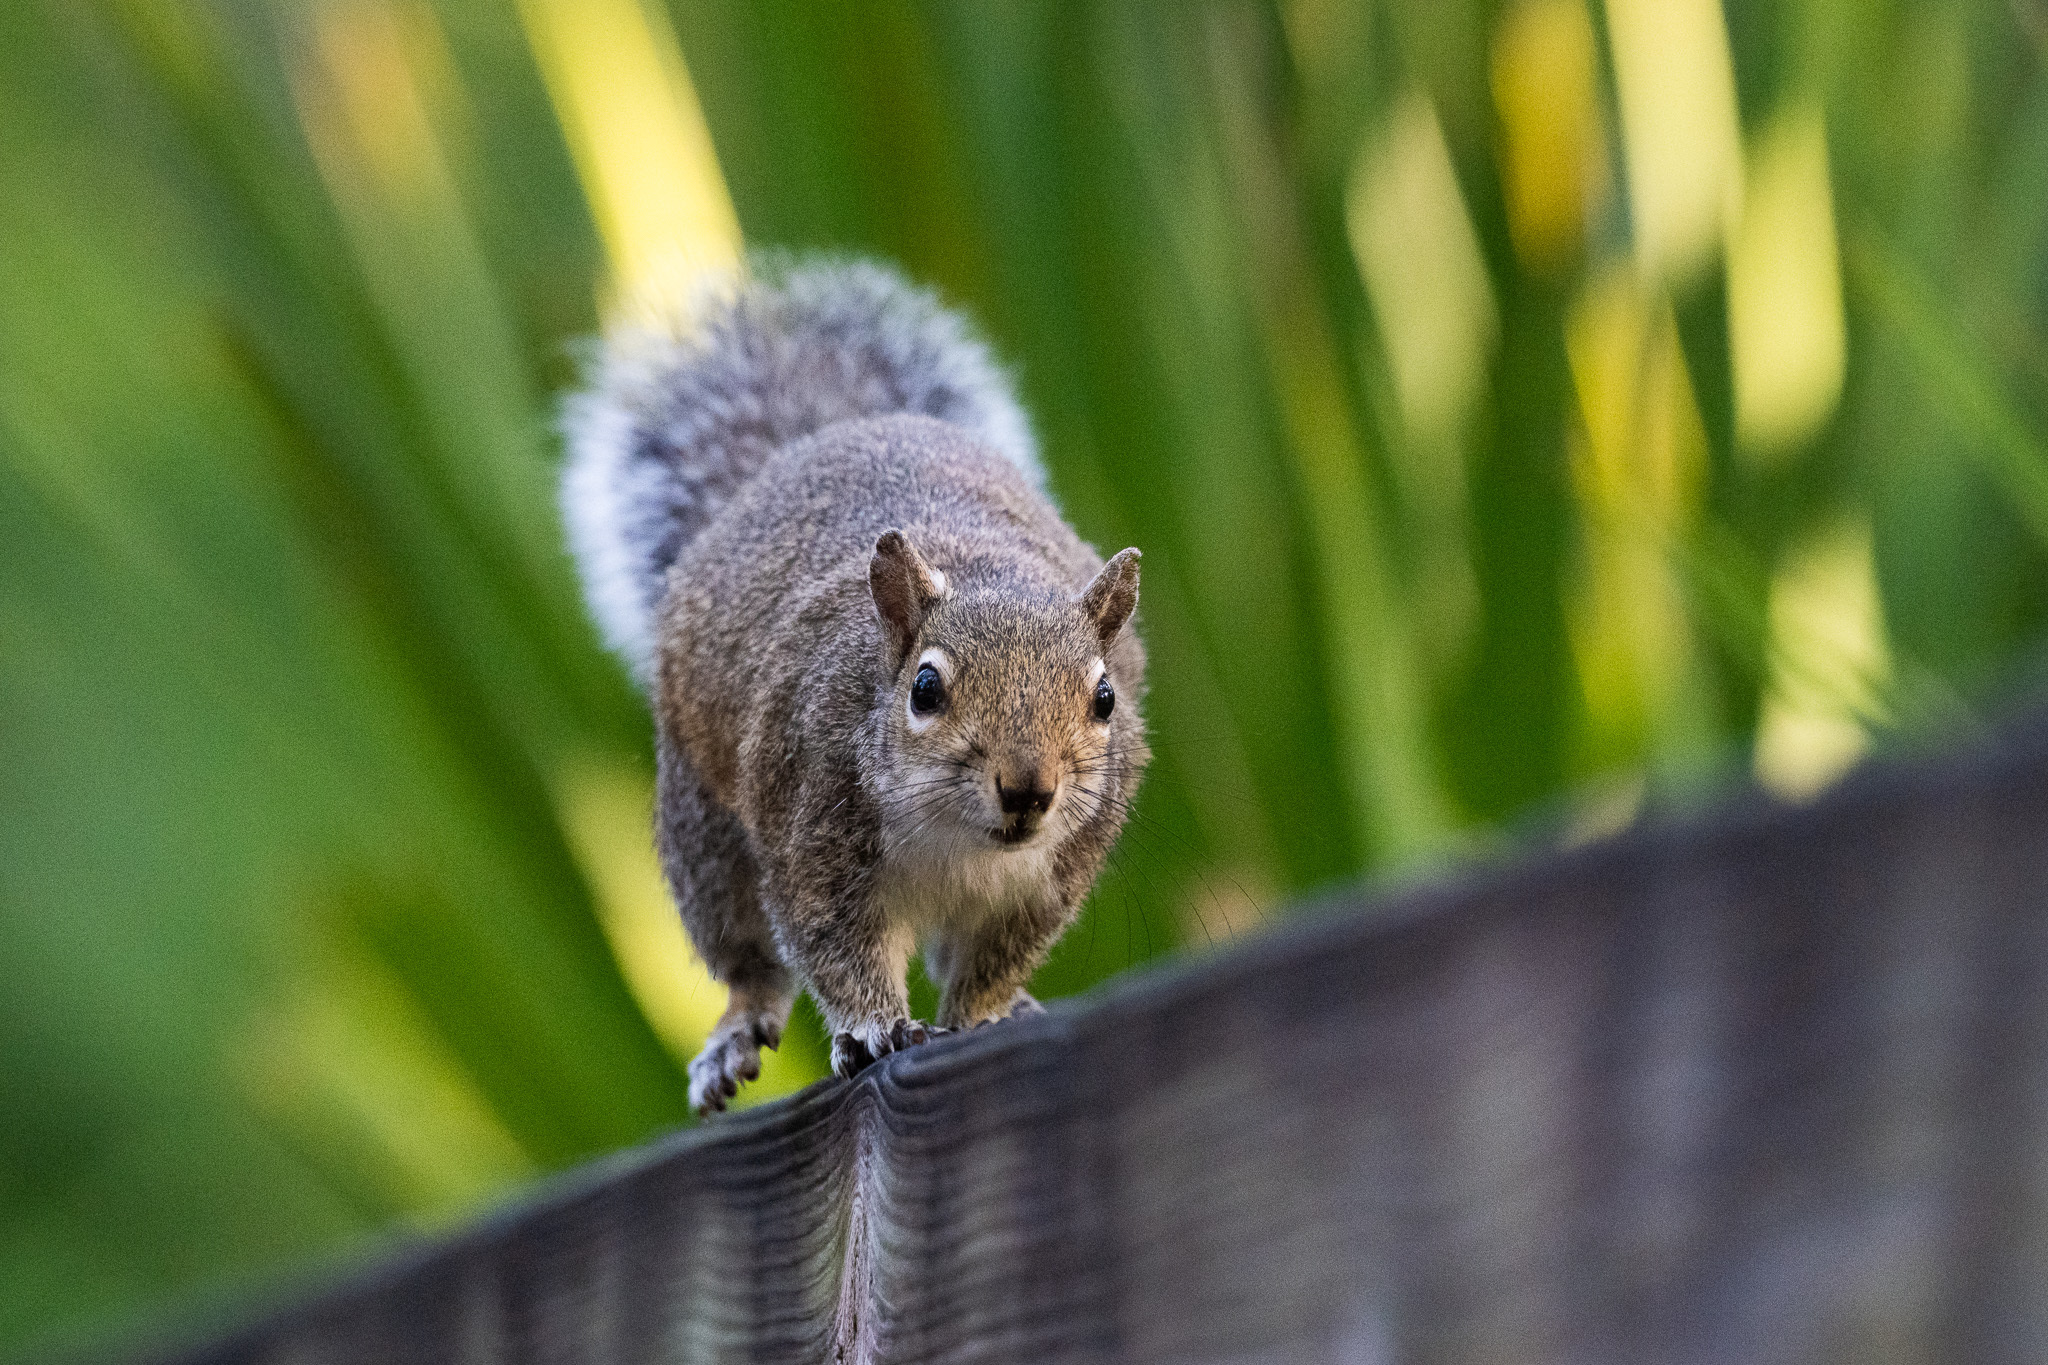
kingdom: Animalia
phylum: Chordata
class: Mammalia
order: Rodentia
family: Sciuridae
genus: Sciurus
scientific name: Sciurus carolinensis
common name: Eastern gray squirrel
